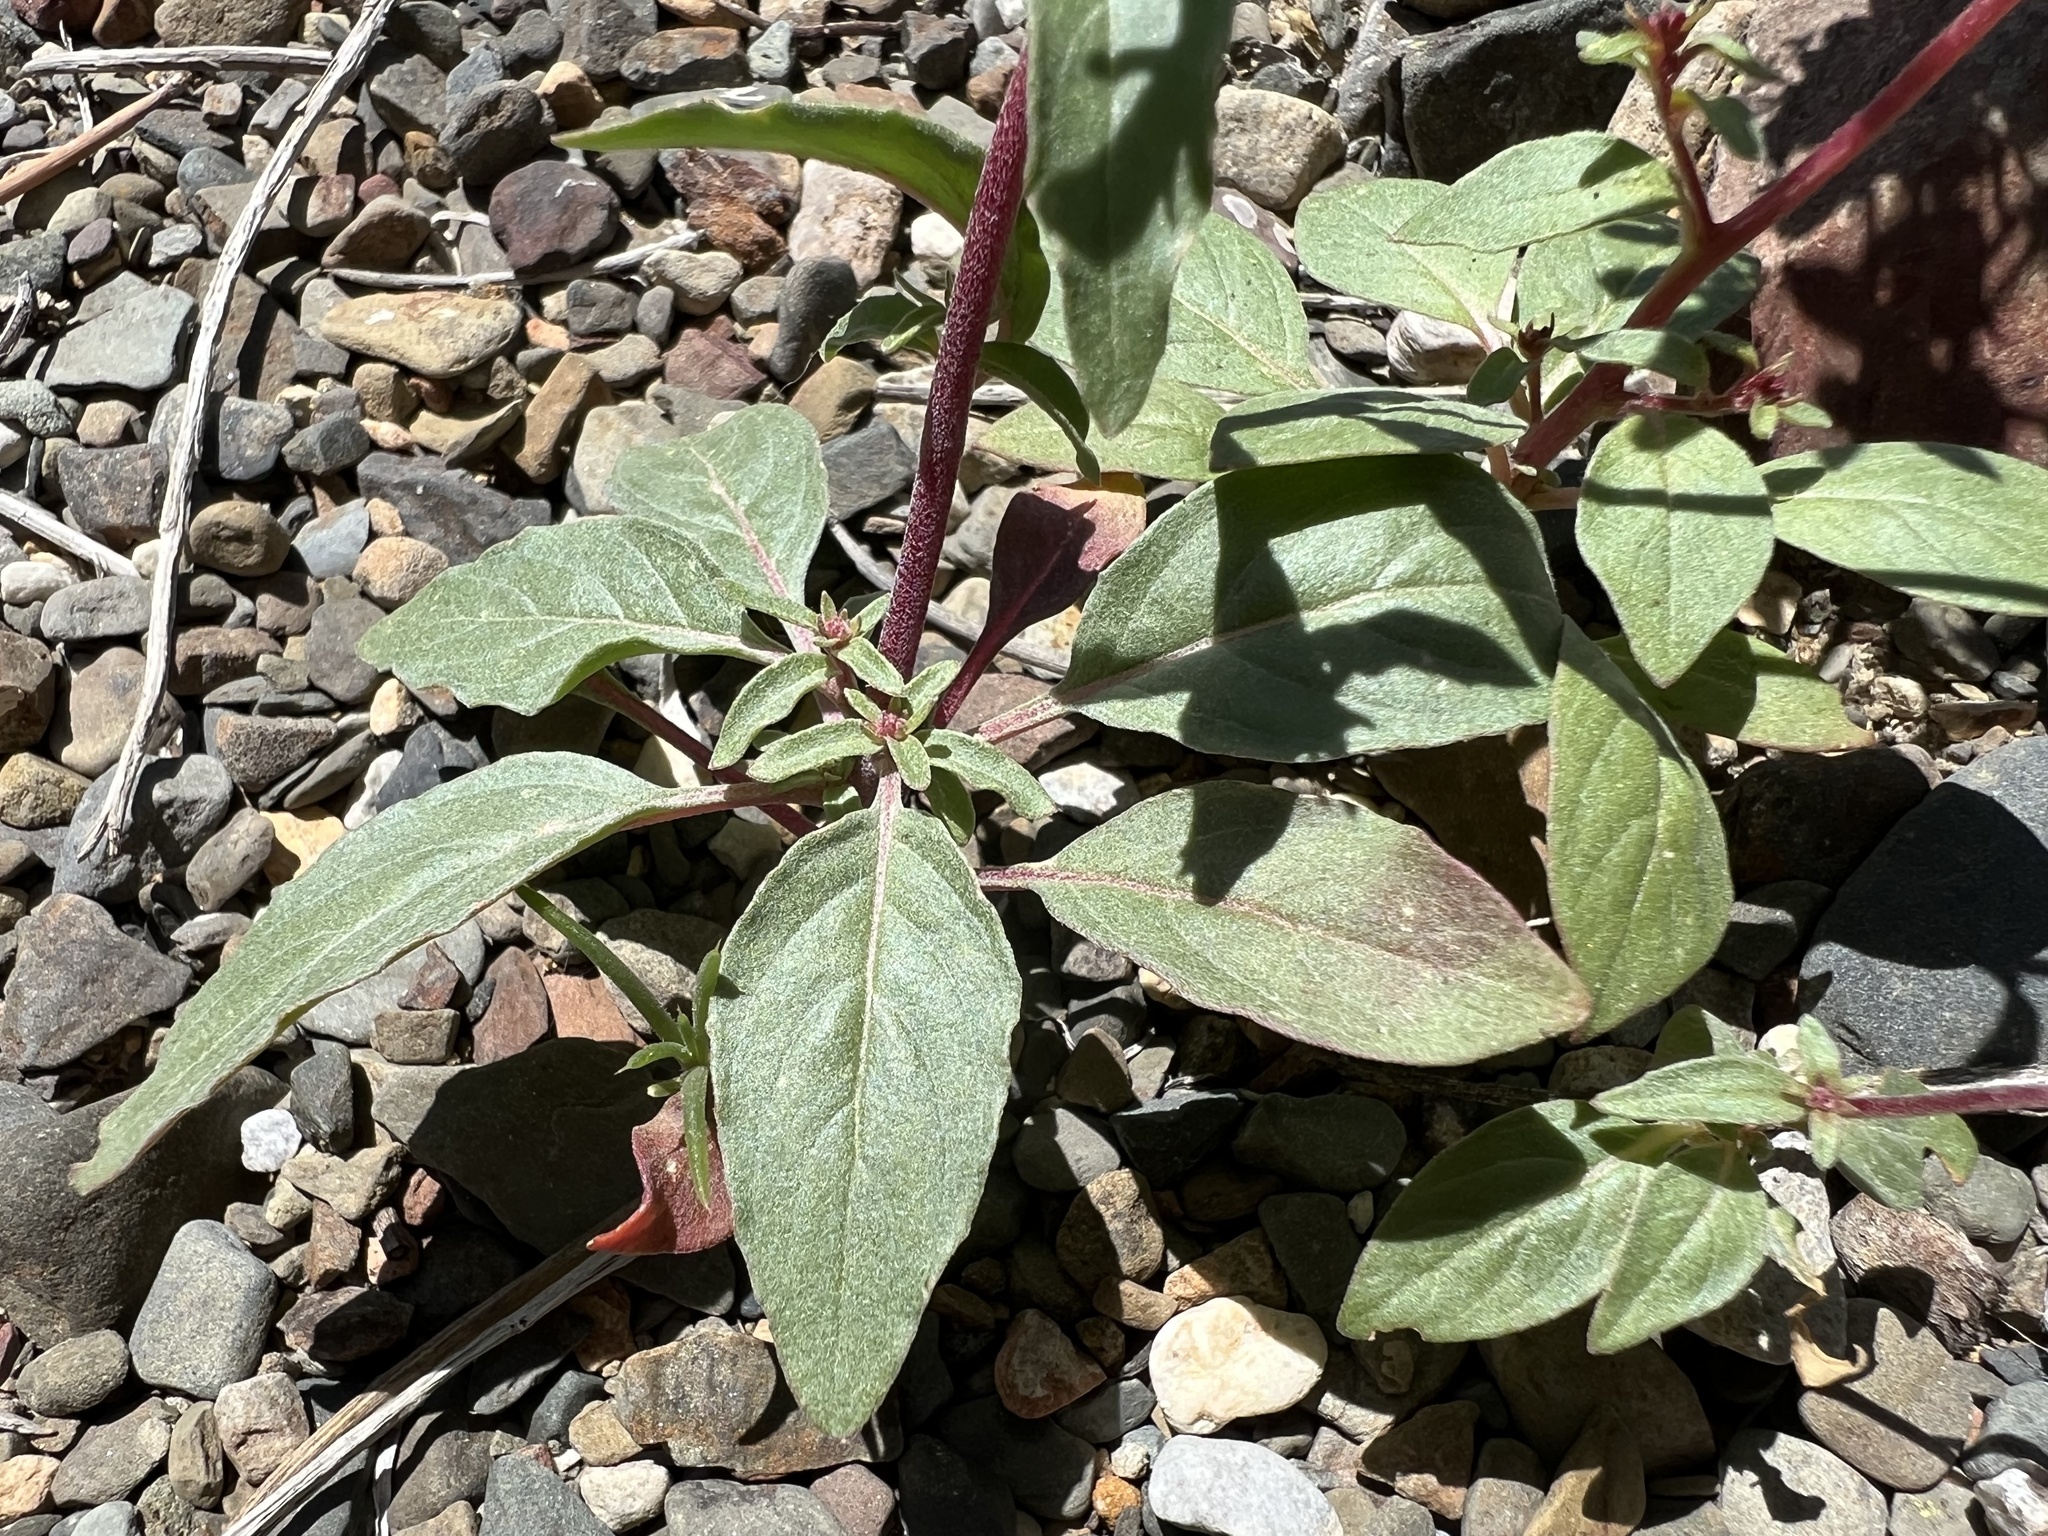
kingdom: Plantae
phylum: Tracheophyta
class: Magnoliopsida
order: Myrtales
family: Onagraceae
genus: Eremothera
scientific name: Eremothera boothii
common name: Booth's evening primrose
